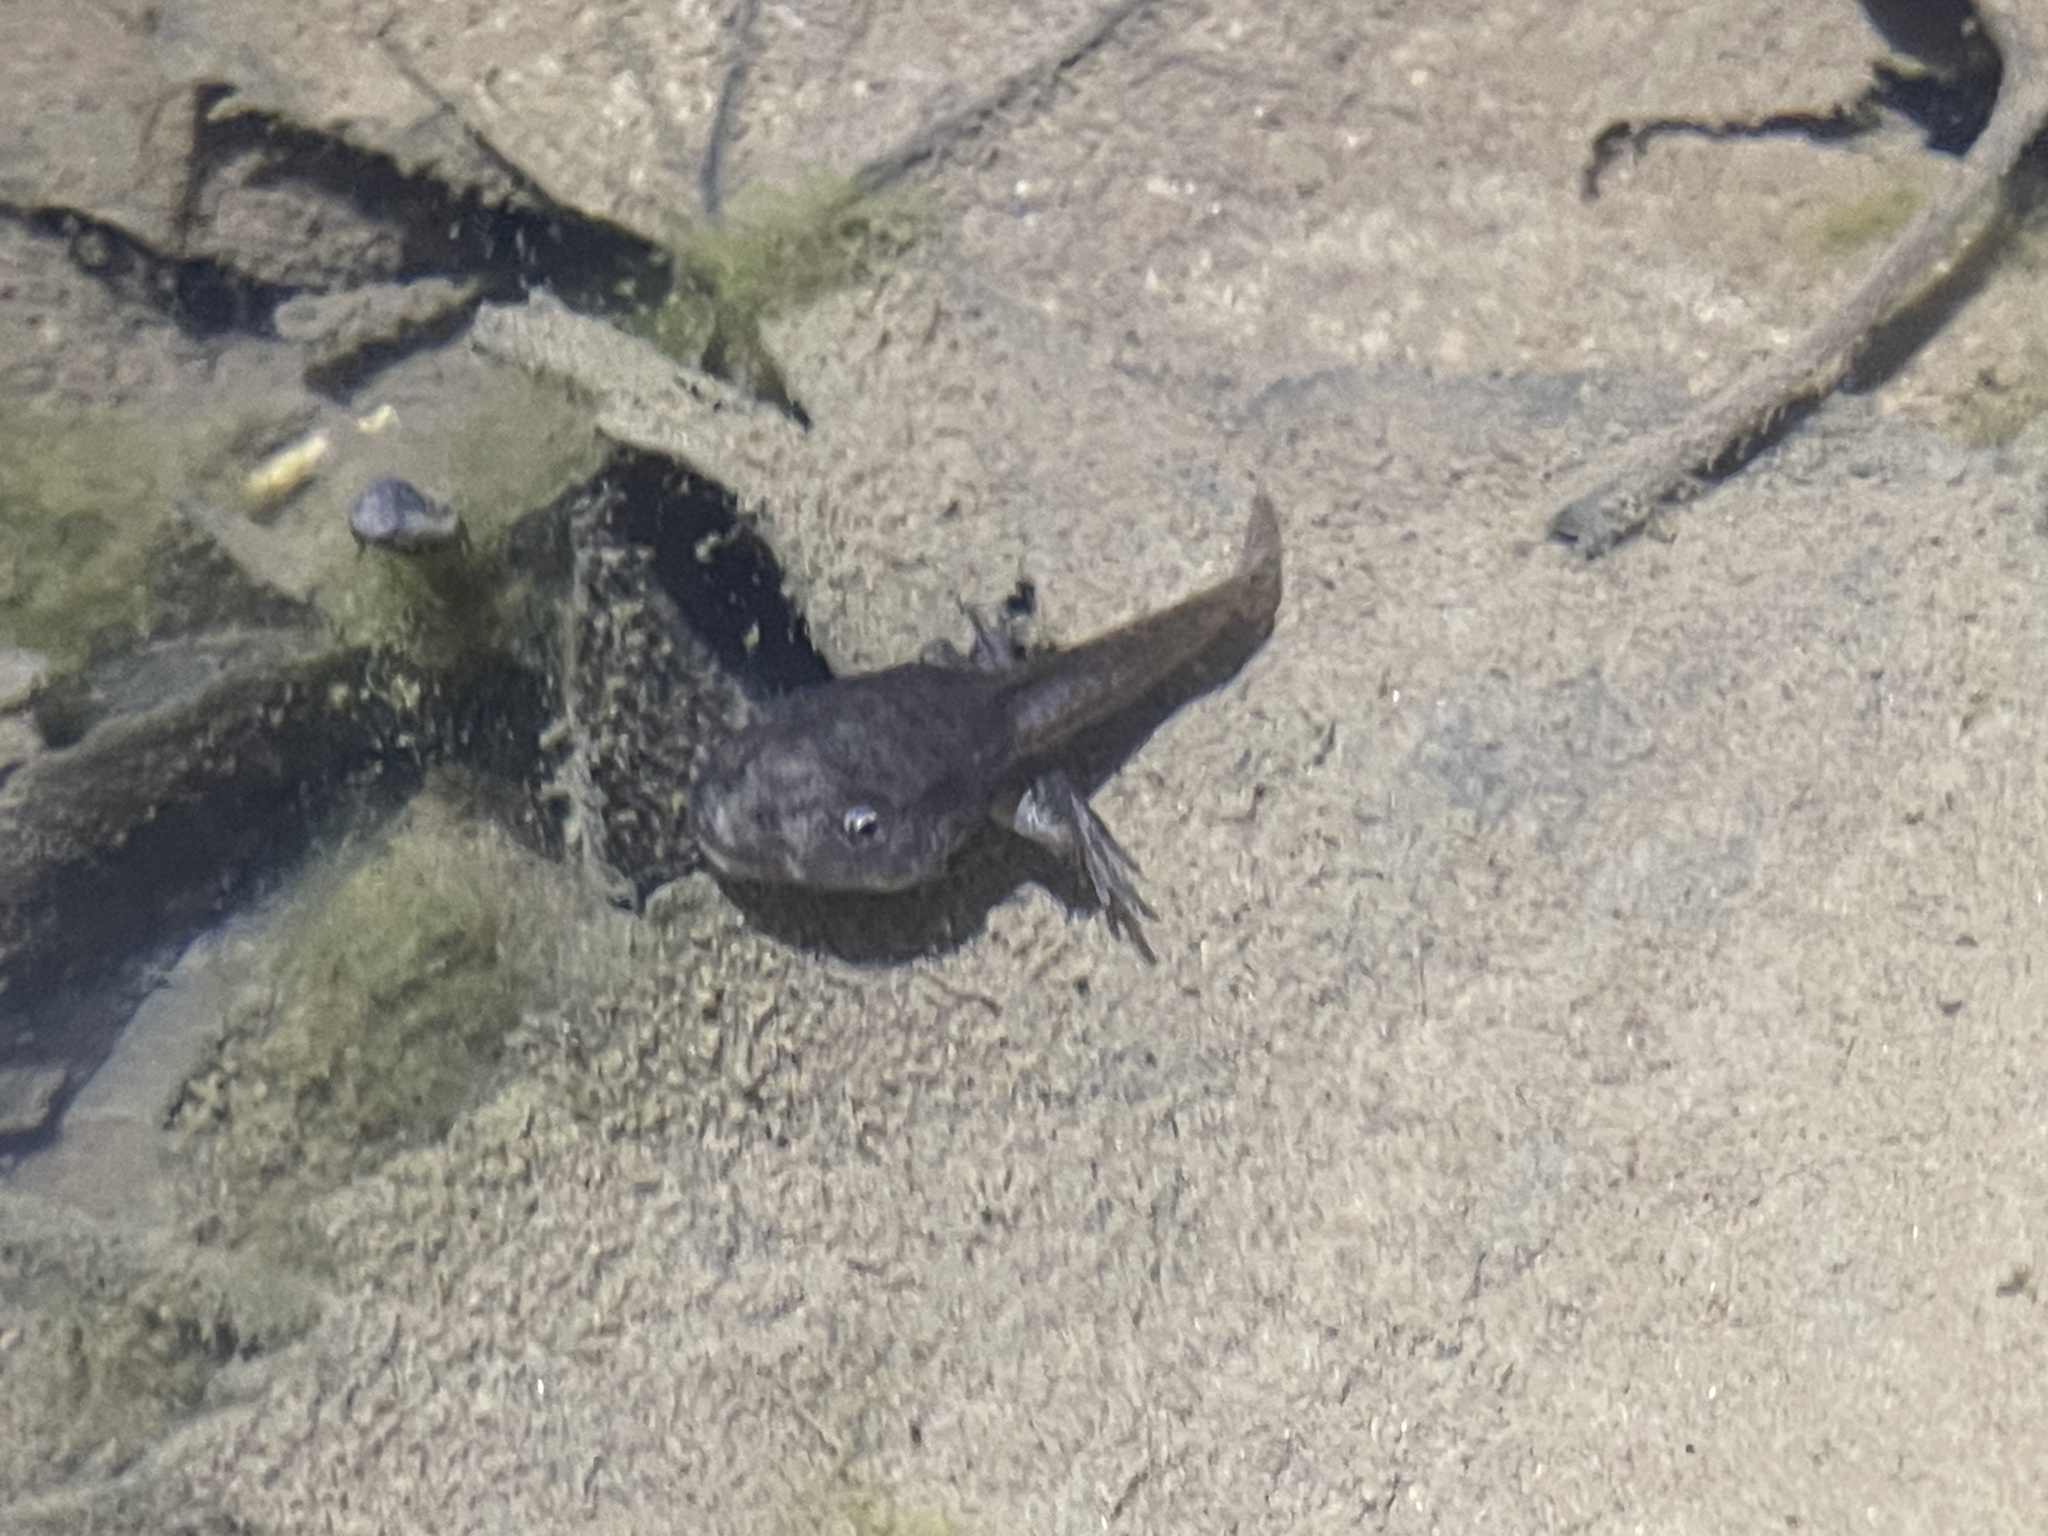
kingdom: Animalia
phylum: Chordata
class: Amphibia
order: Anura
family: Ranidae
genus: Lithobates
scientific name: Lithobates clamitans
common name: Green frog
